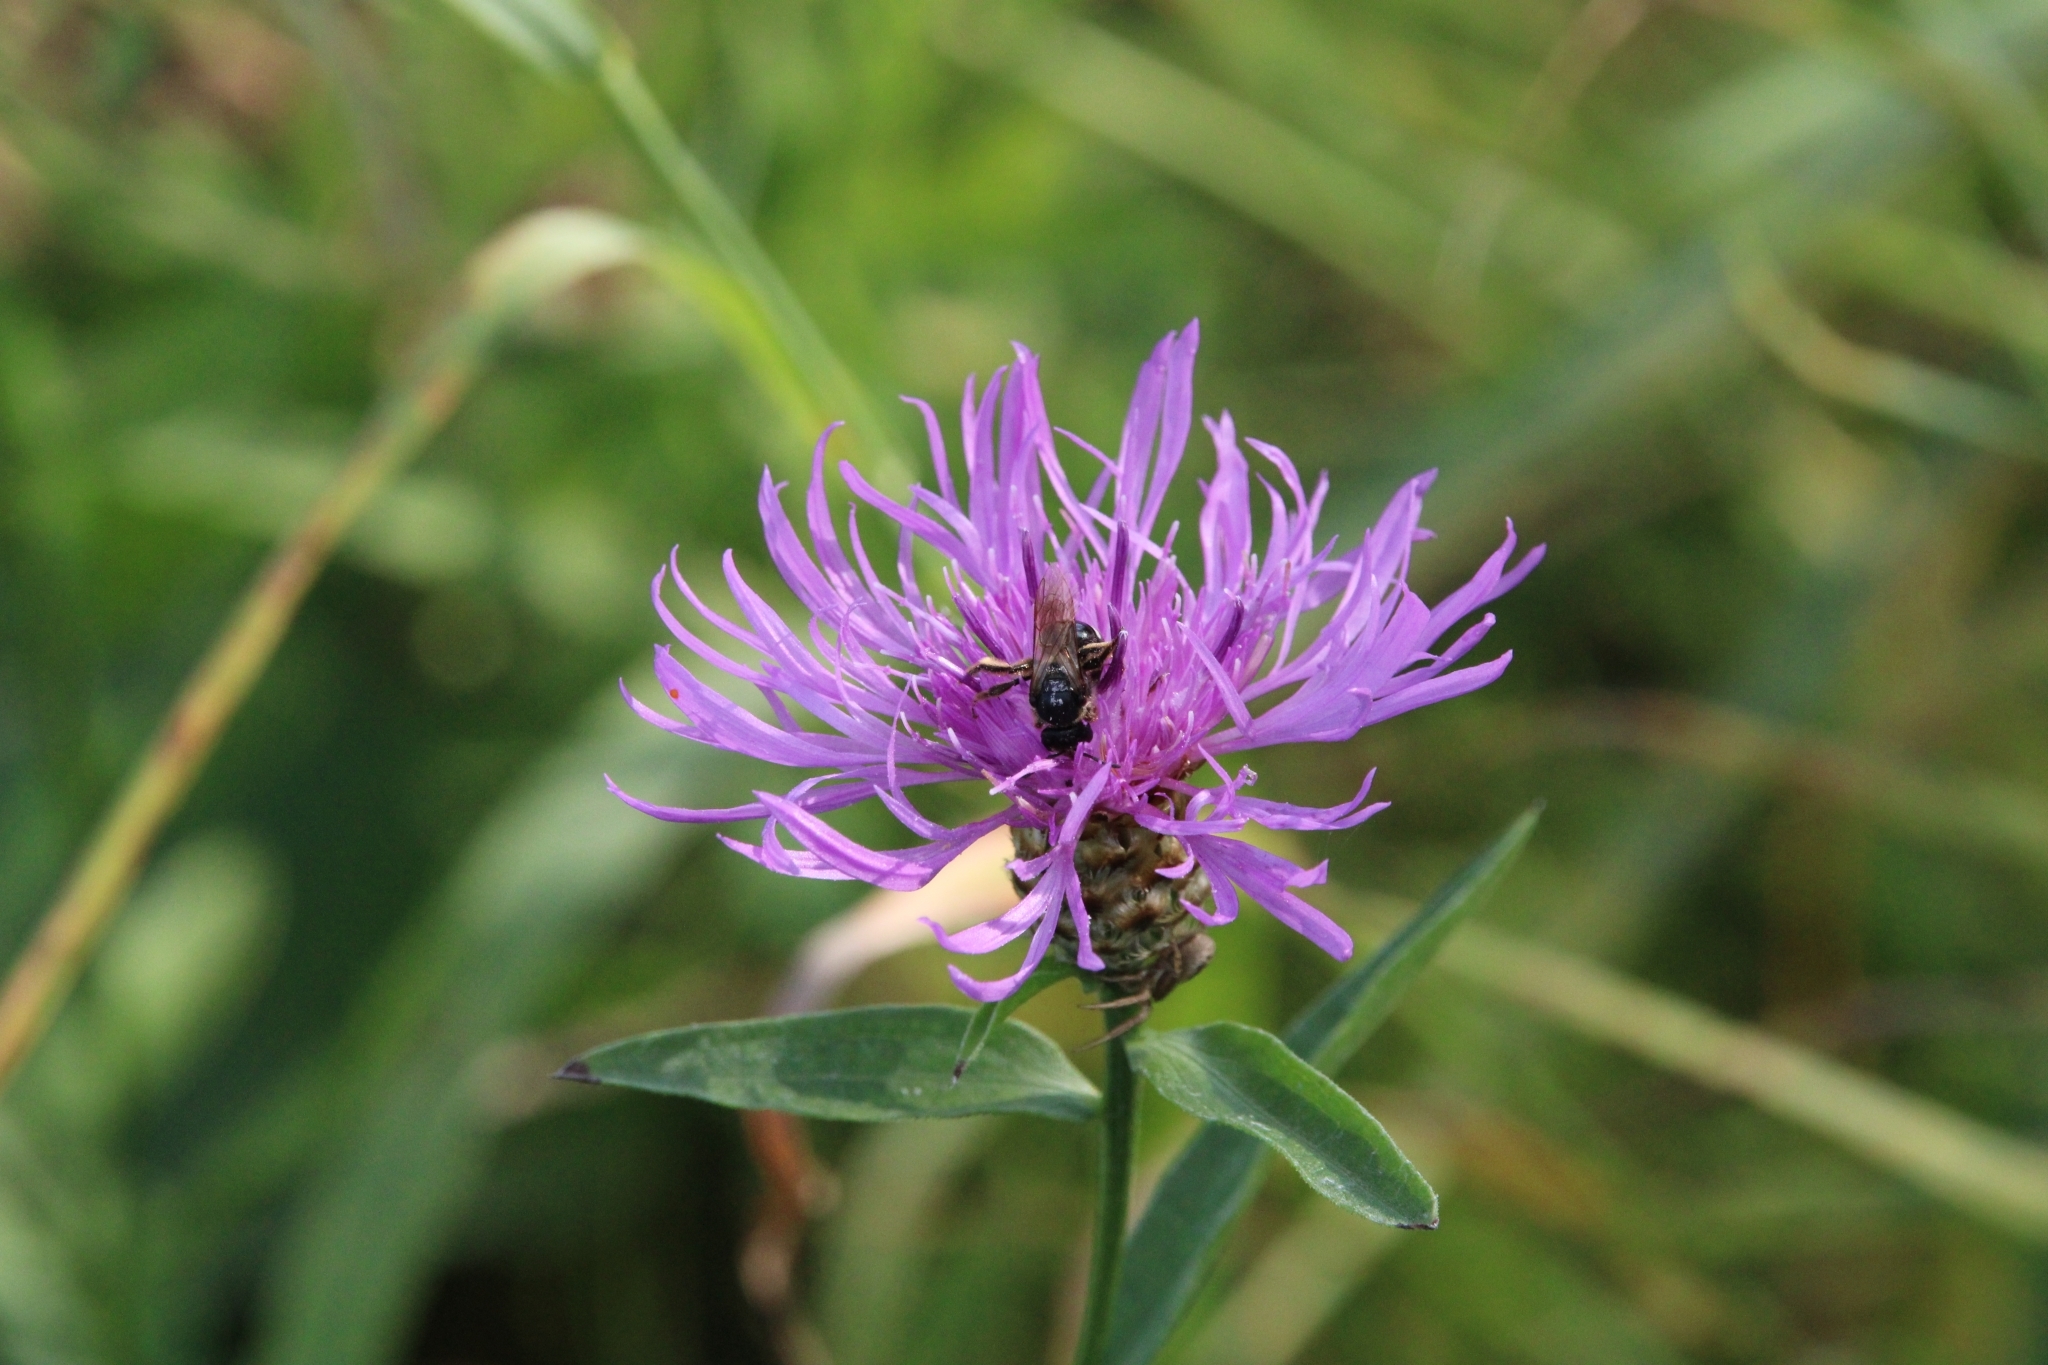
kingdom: Plantae
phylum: Tracheophyta
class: Magnoliopsida
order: Asterales
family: Asteraceae
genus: Centaurea
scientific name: Centaurea jacea
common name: Brown knapweed
